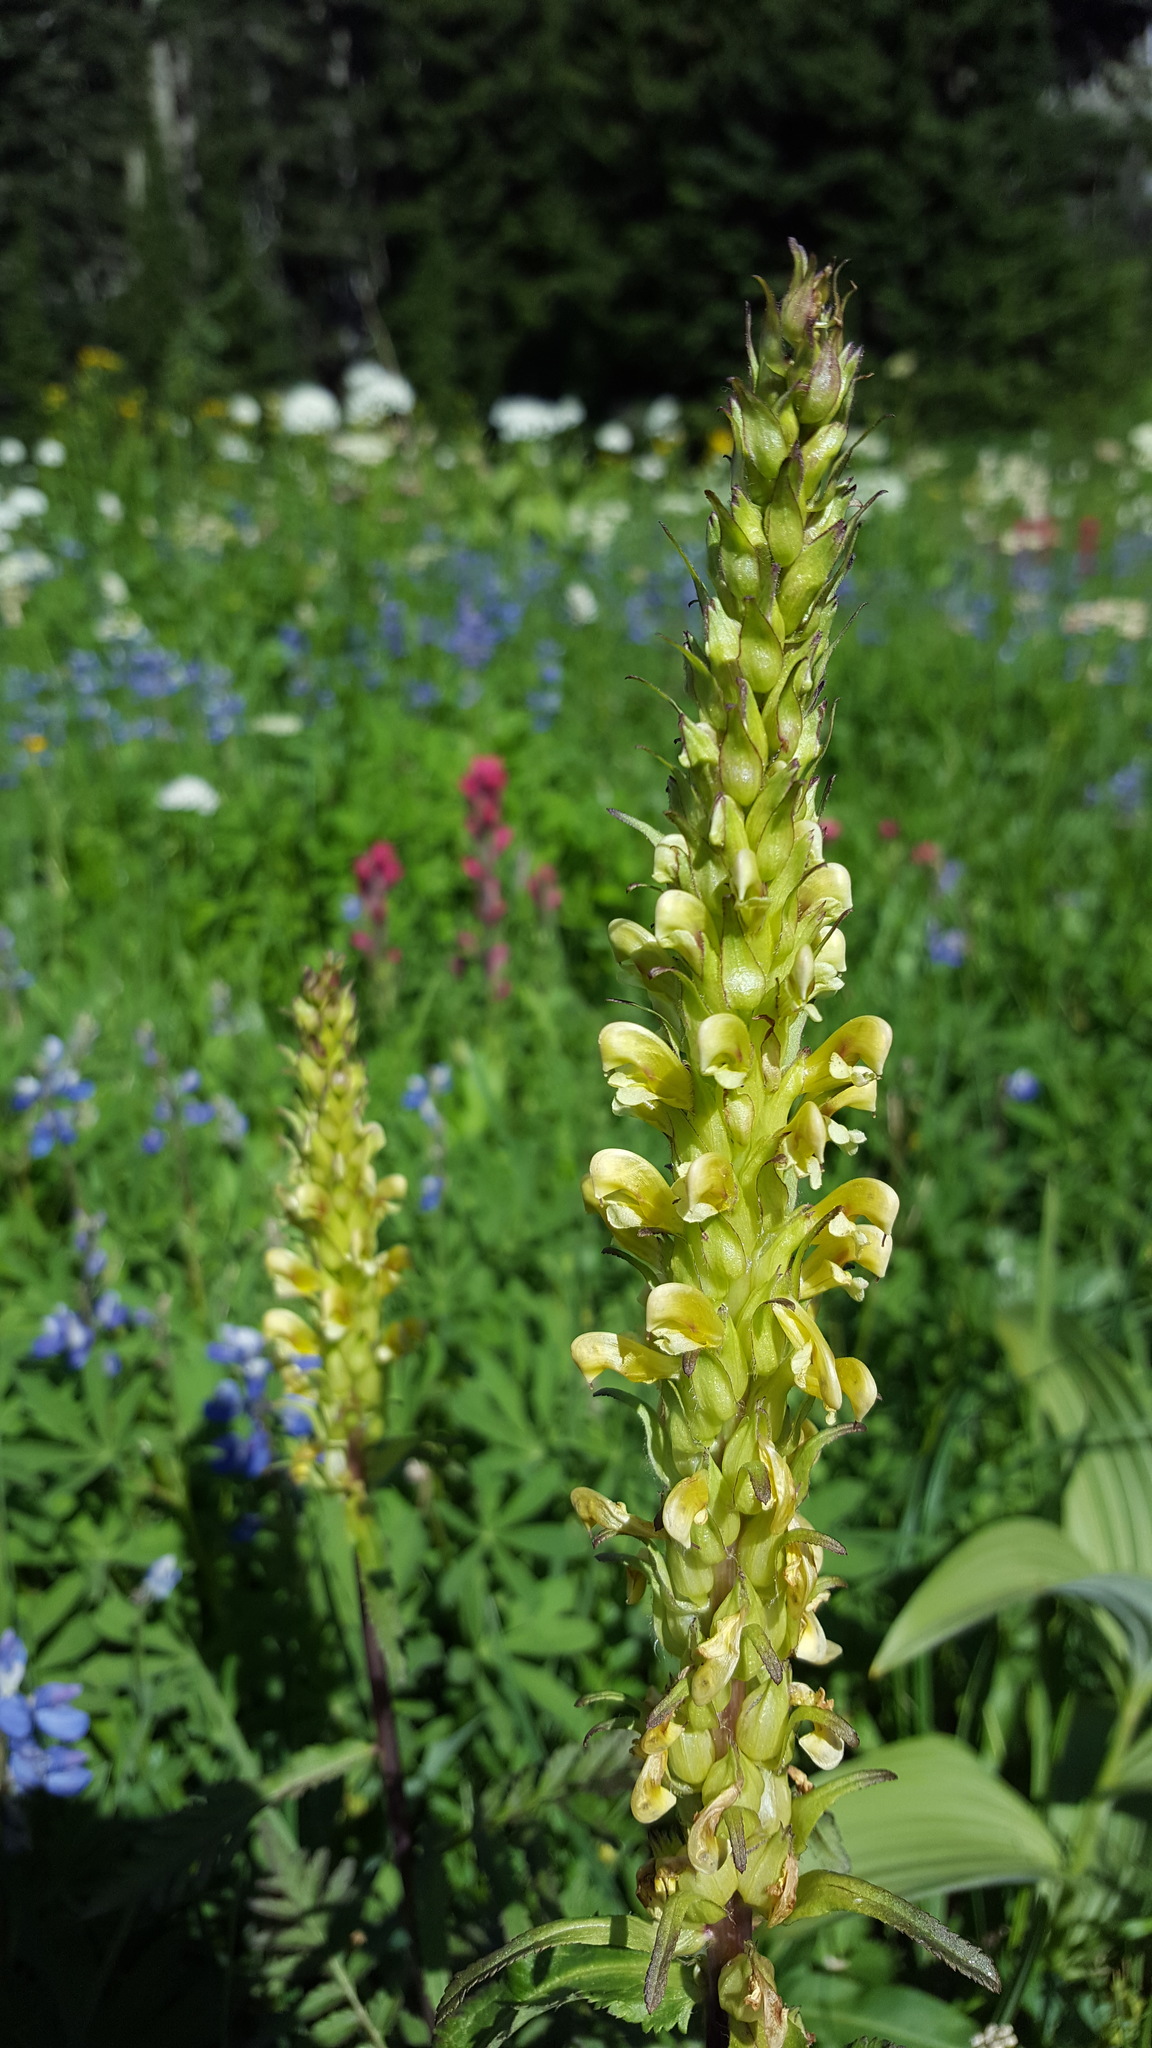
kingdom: Plantae
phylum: Tracheophyta
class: Magnoliopsida
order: Lamiales
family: Orobanchaceae
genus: Pedicularis
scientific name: Pedicularis bracteosa
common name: Bracted lousewort
